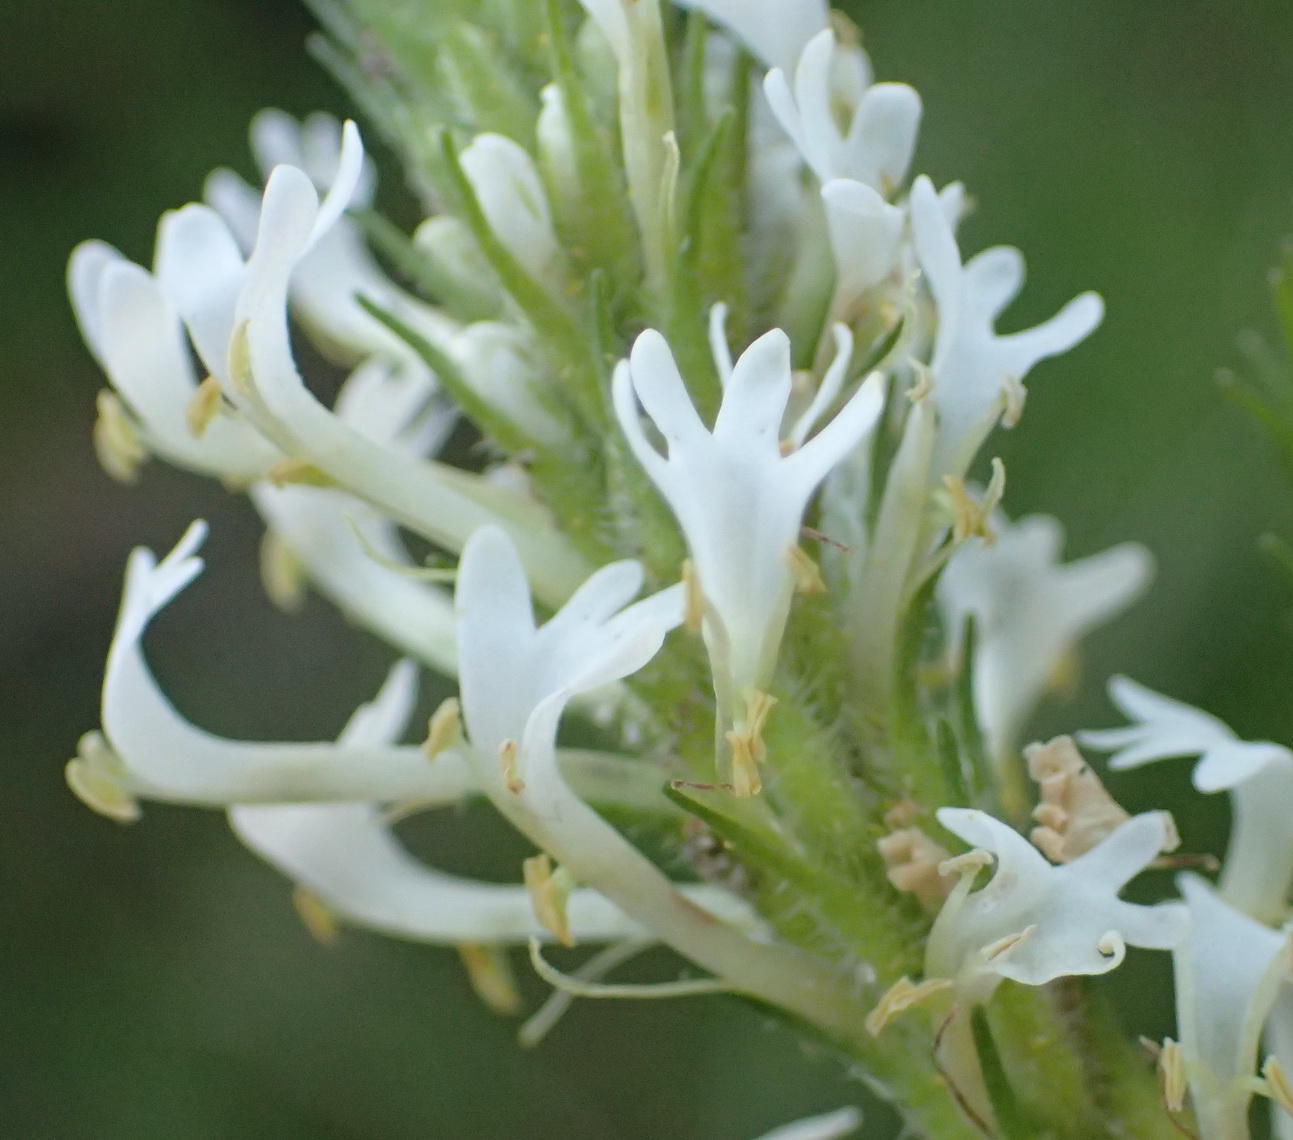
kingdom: Plantae
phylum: Tracheophyta
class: Magnoliopsida
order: Lamiales
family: Scrophulariaceae
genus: Dischisma
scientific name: Dischisma ciliatum
